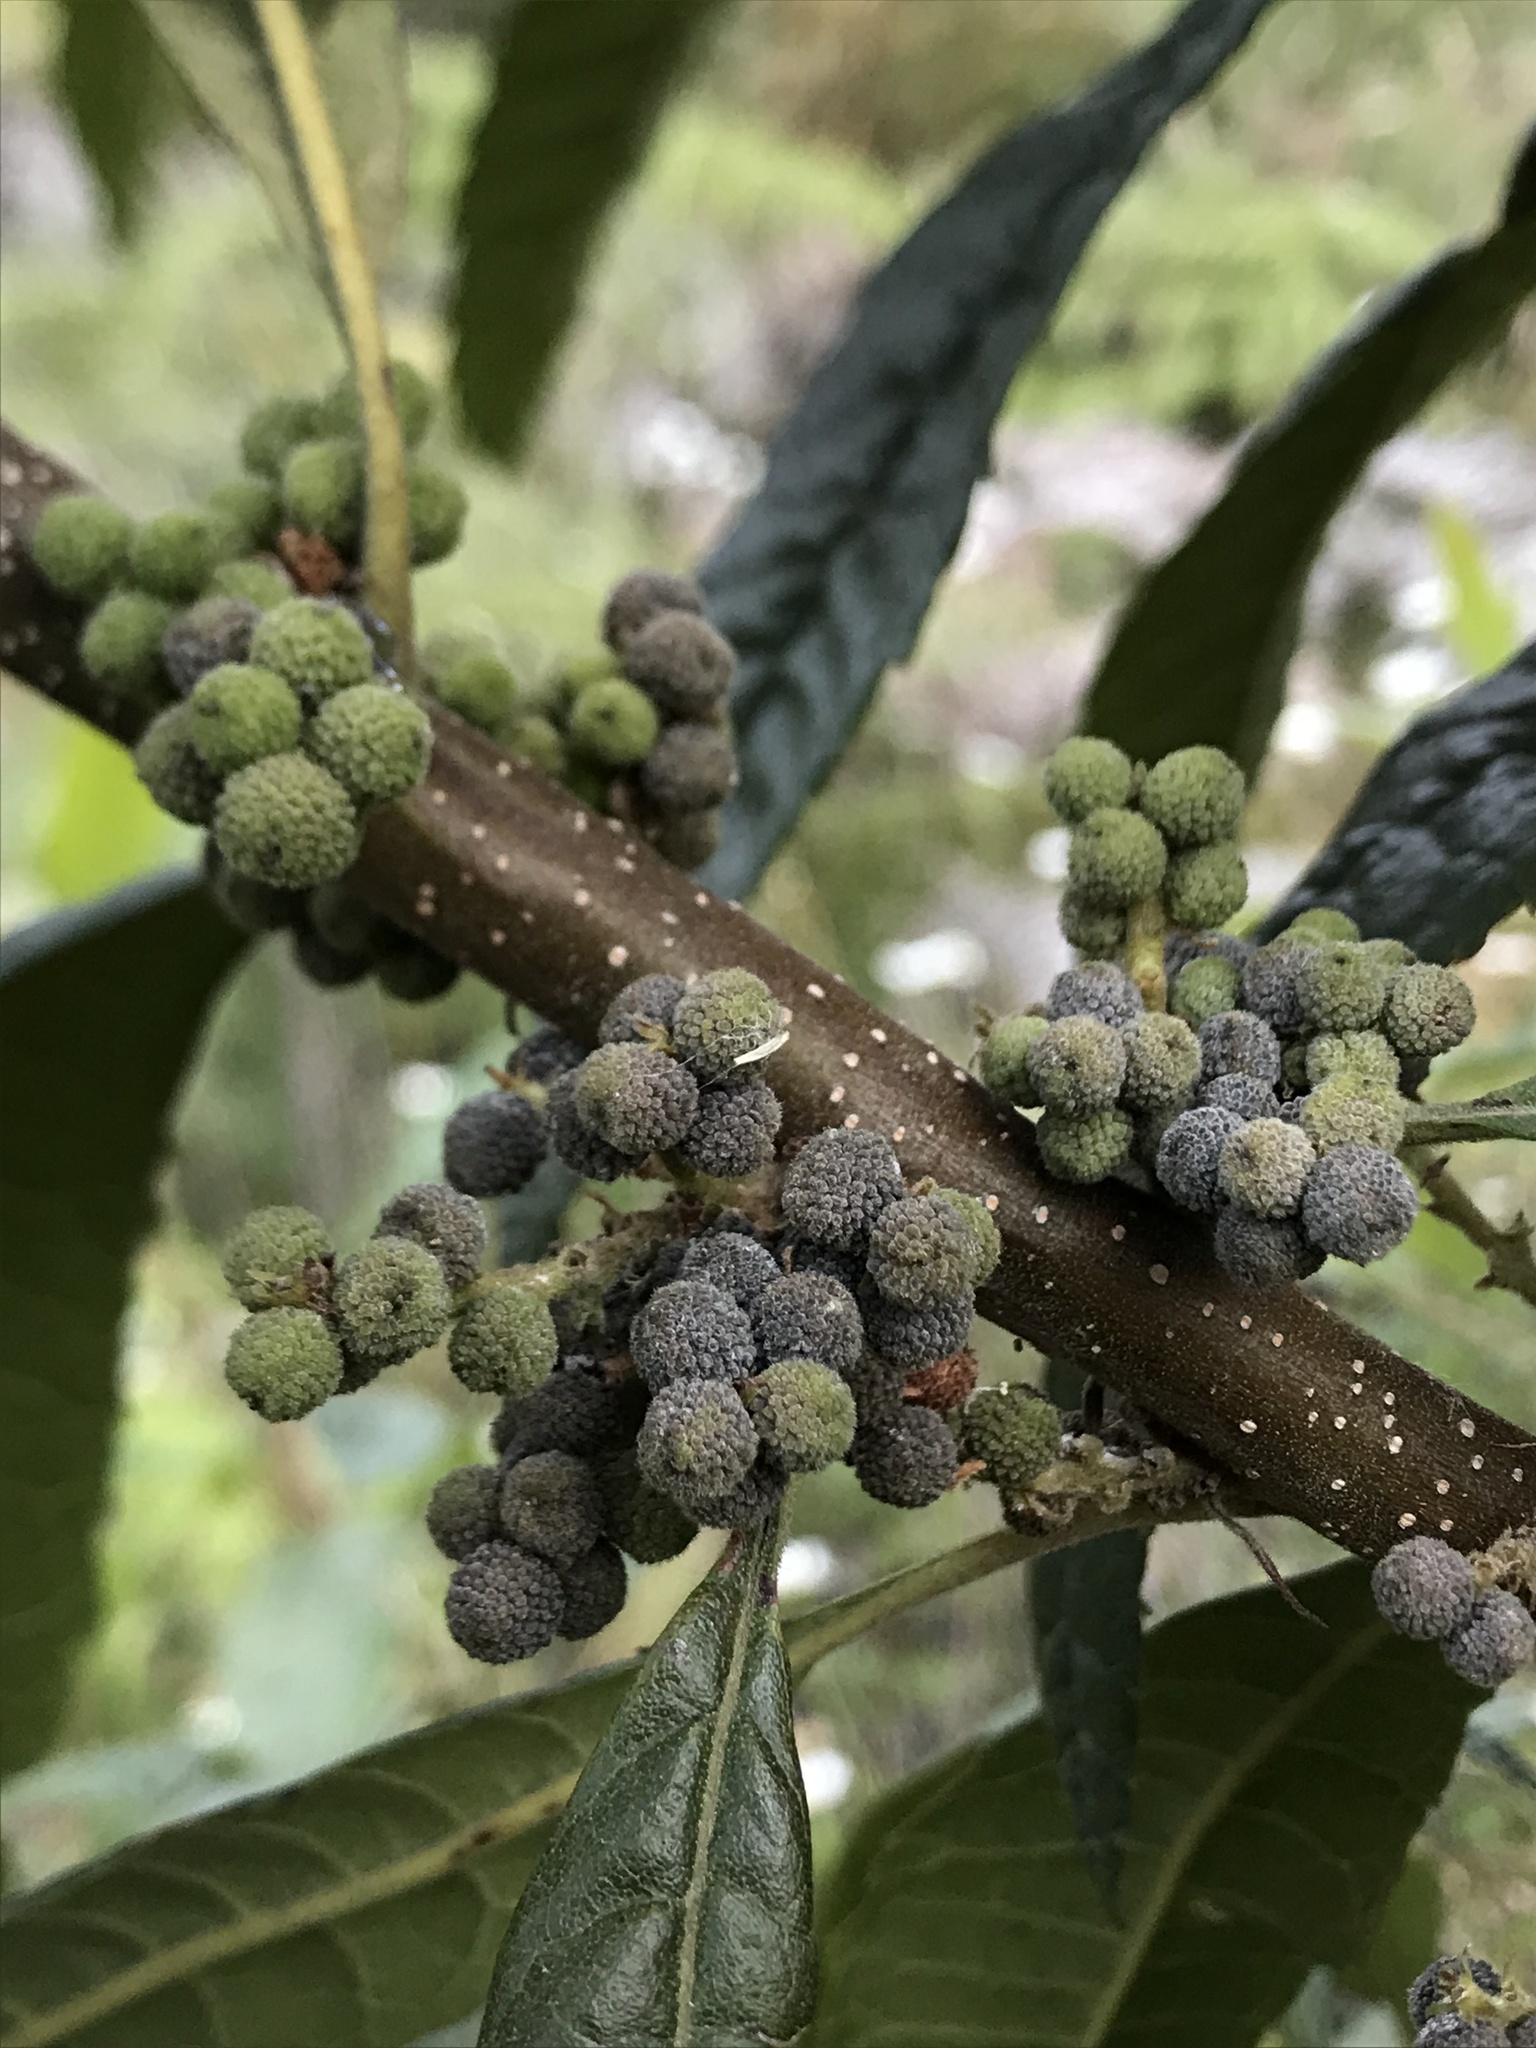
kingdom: Plantae
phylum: Tracheophyta
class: Magnoliopsida
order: Fagales
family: Myricaceae
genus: Morella
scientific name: Morella pubescens
